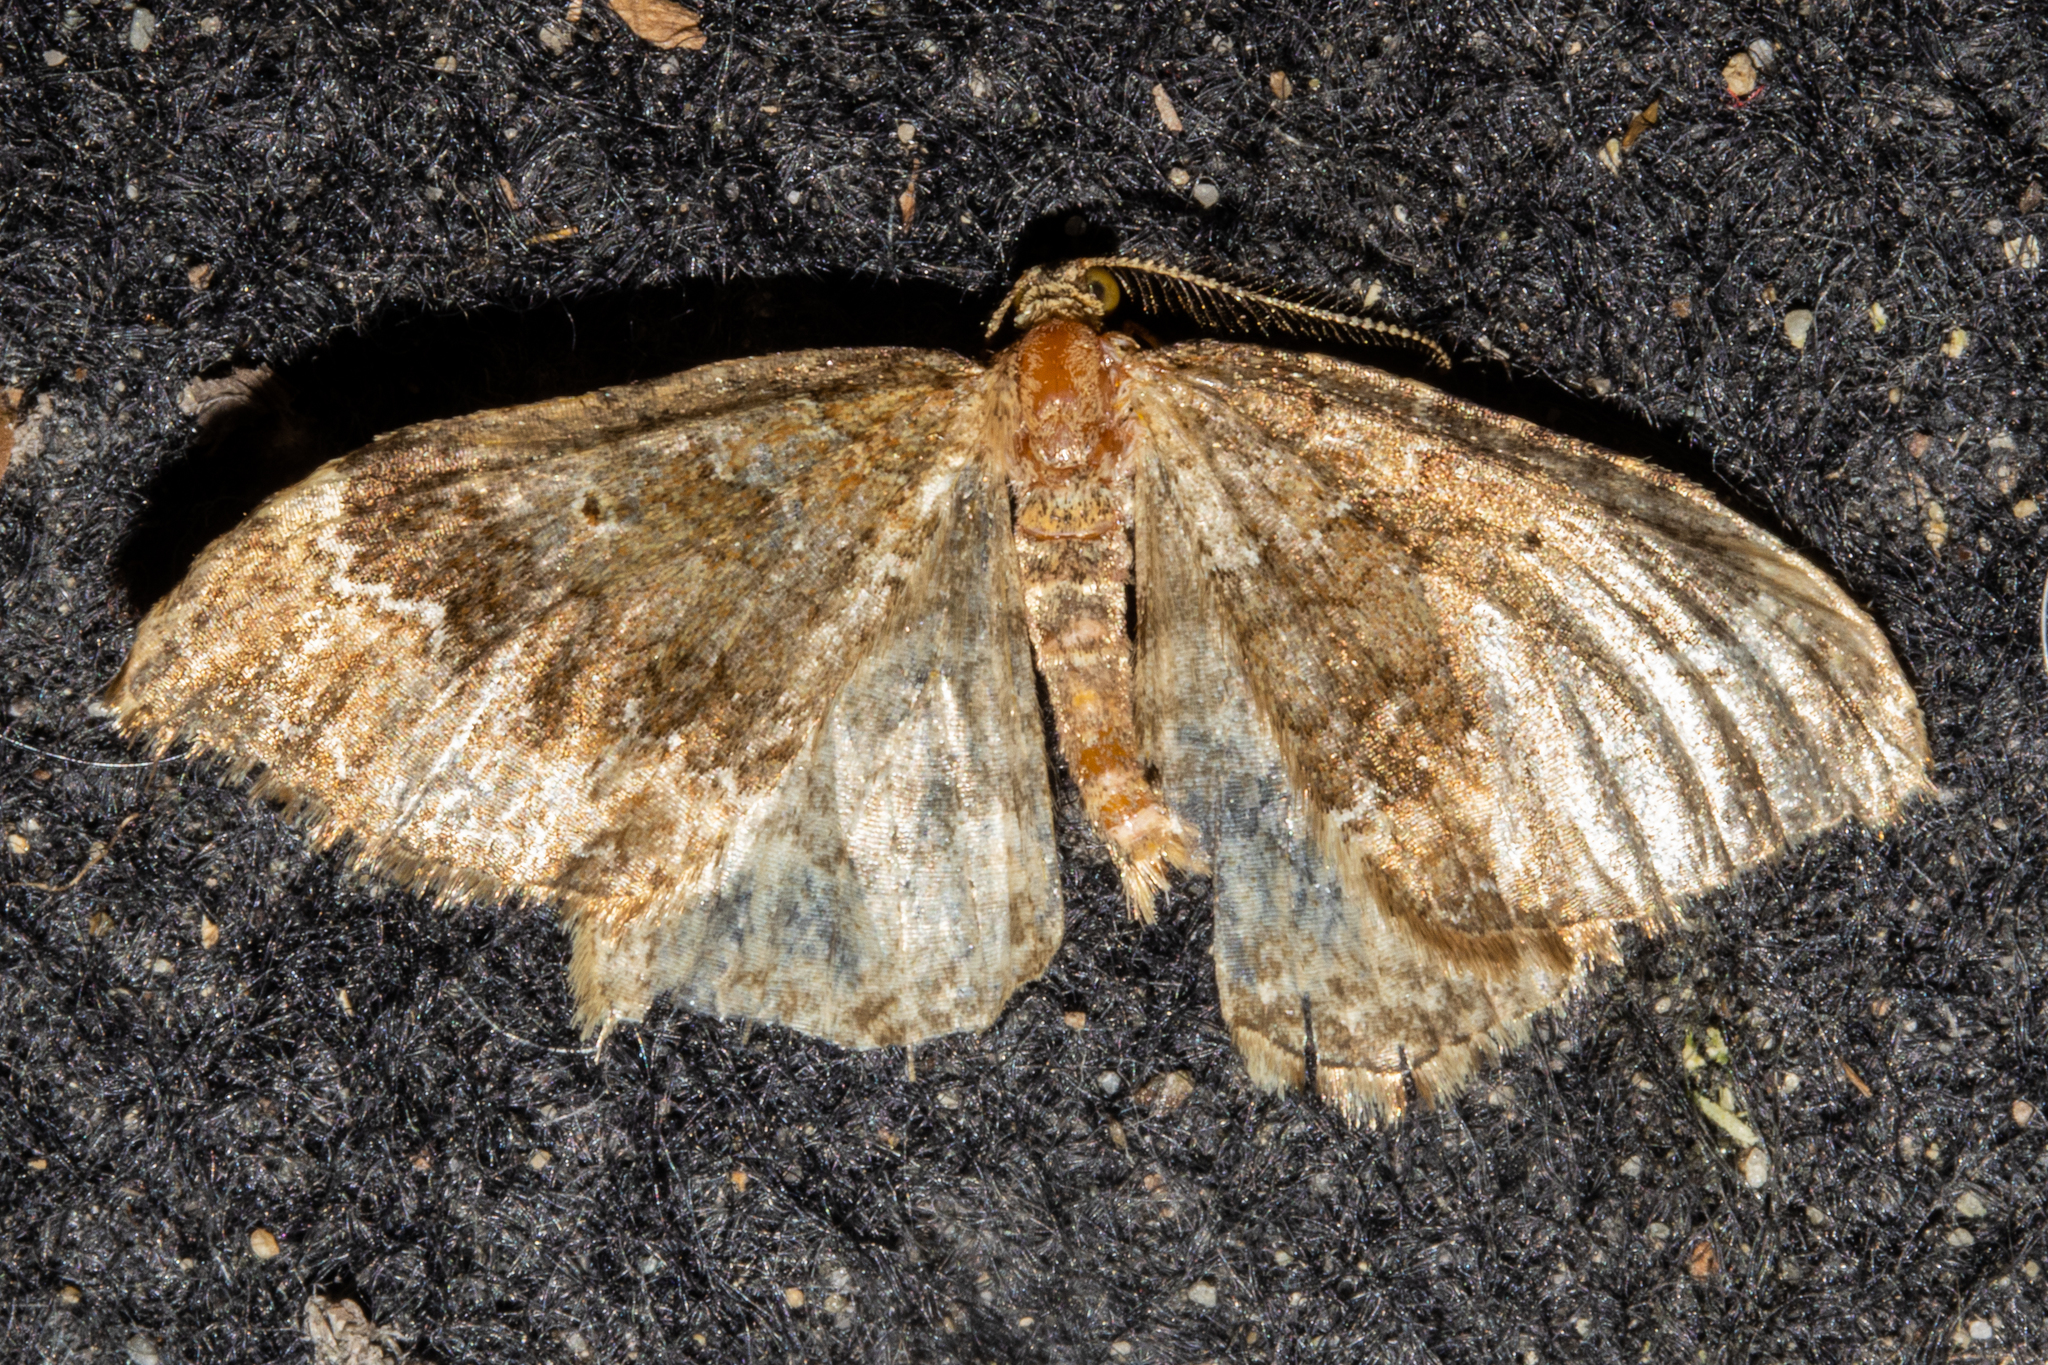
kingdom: Animalia
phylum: Arthropoda
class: Insecta
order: Lepidoptera
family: Geometridae
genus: Asaphodes
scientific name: Asaphodes chionogramma
